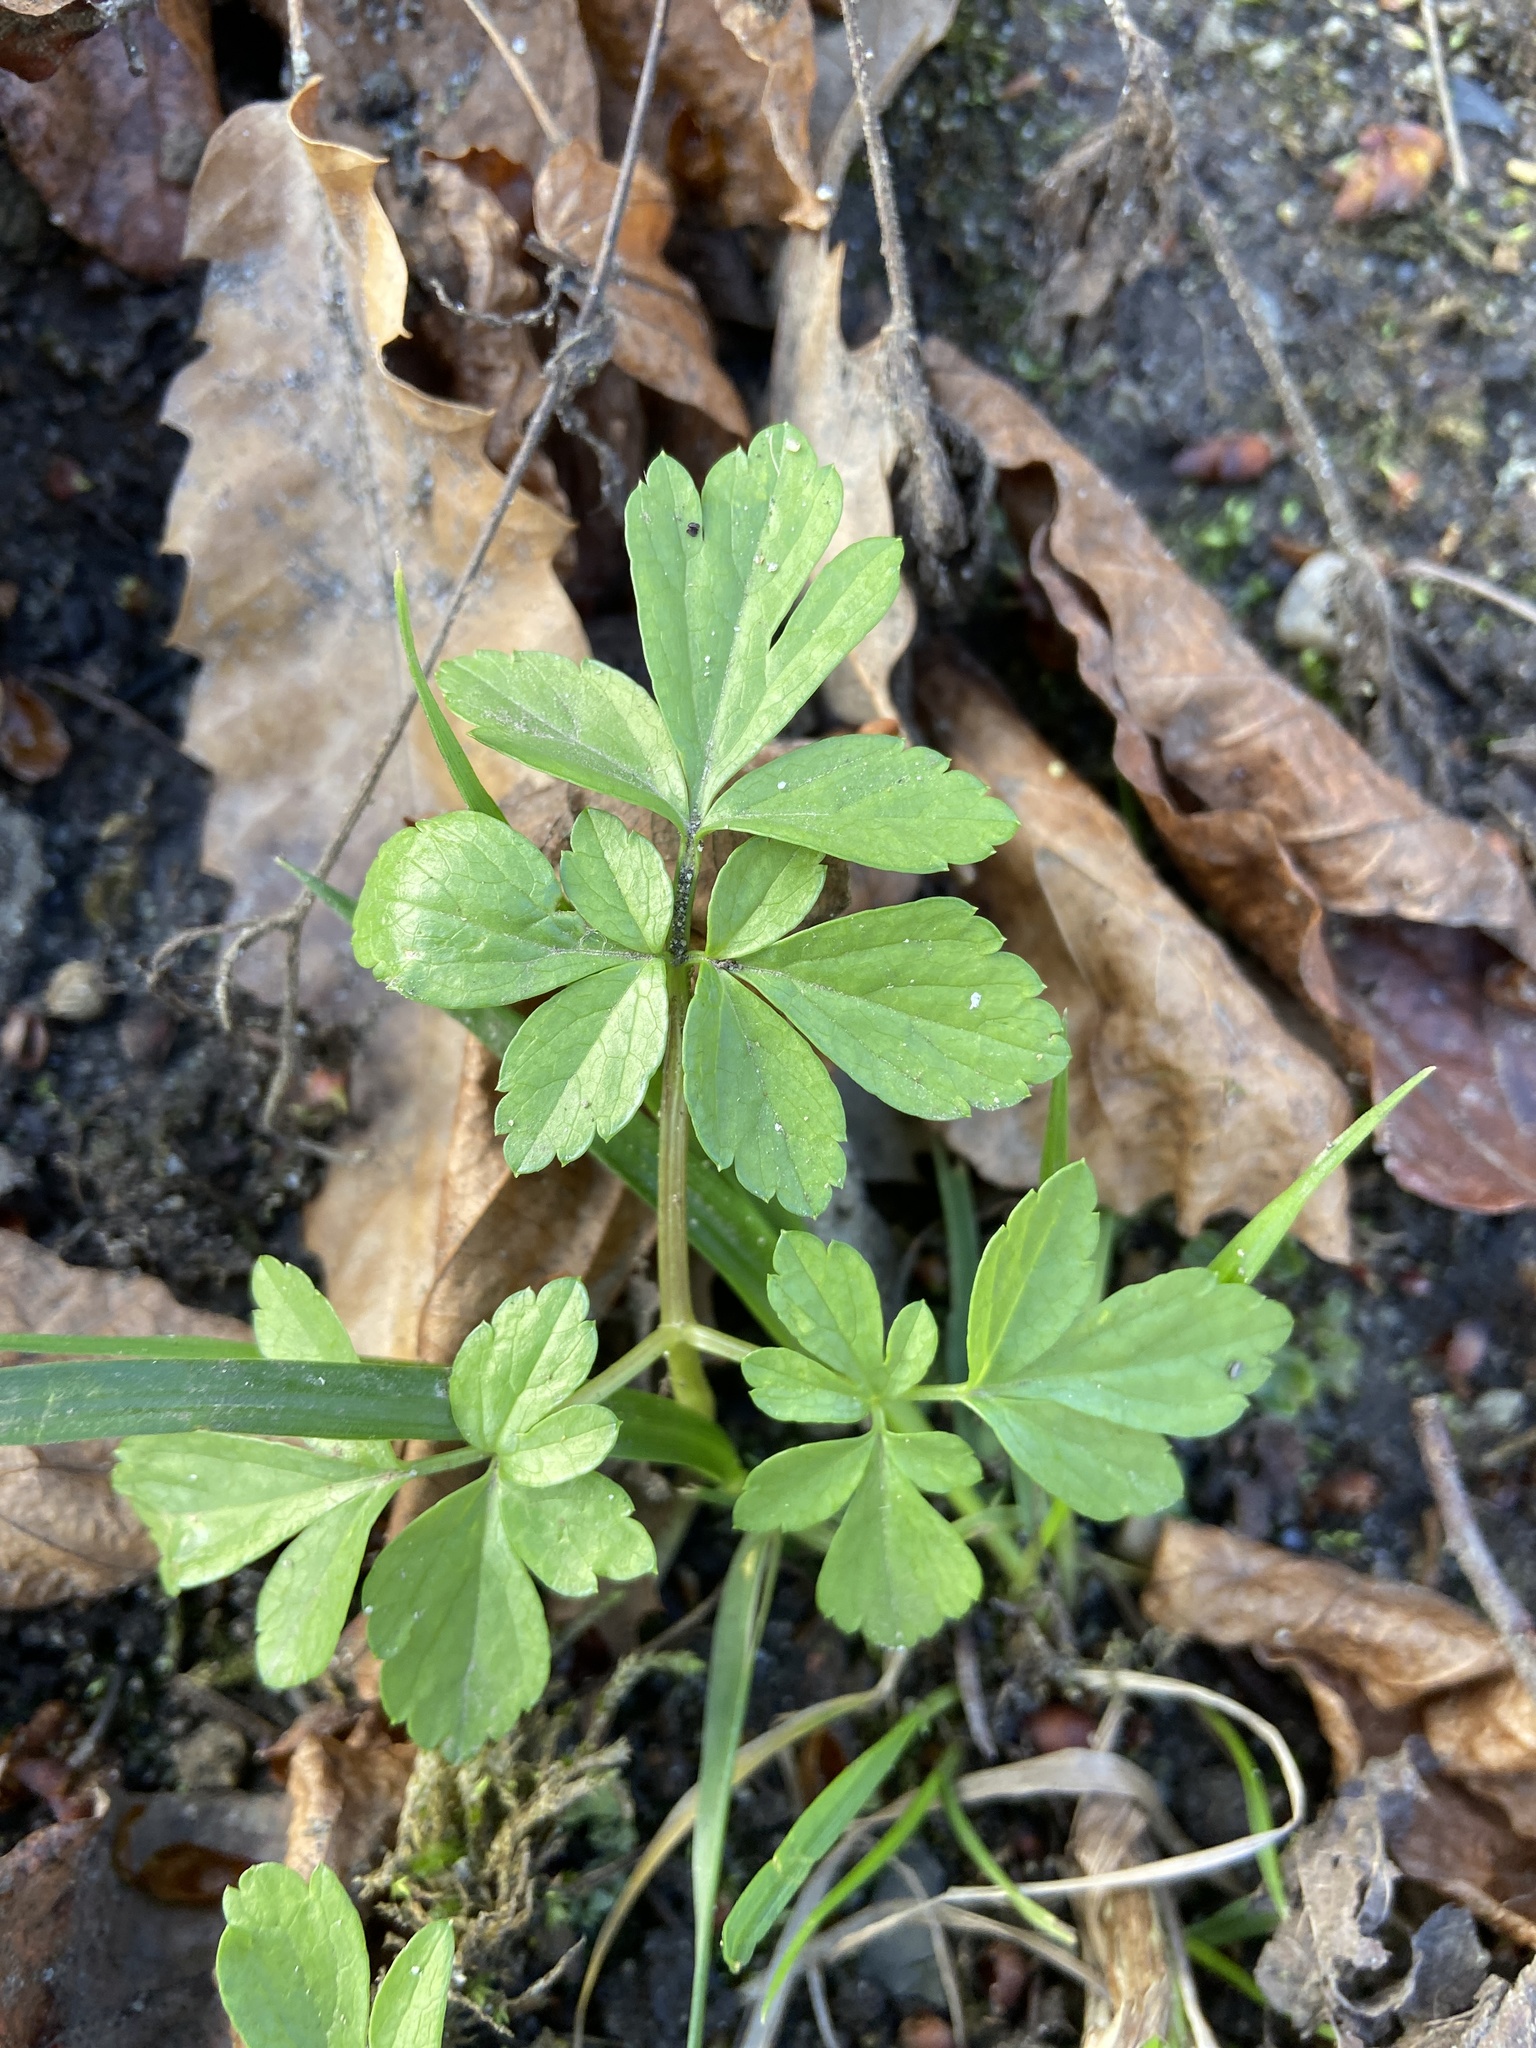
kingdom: Plantae
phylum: Tracheophyta
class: Magnoliopsida
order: Apiales
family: Apiaceae
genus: Aegopodium
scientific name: Aegopodium podagraria
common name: Ground-elder
